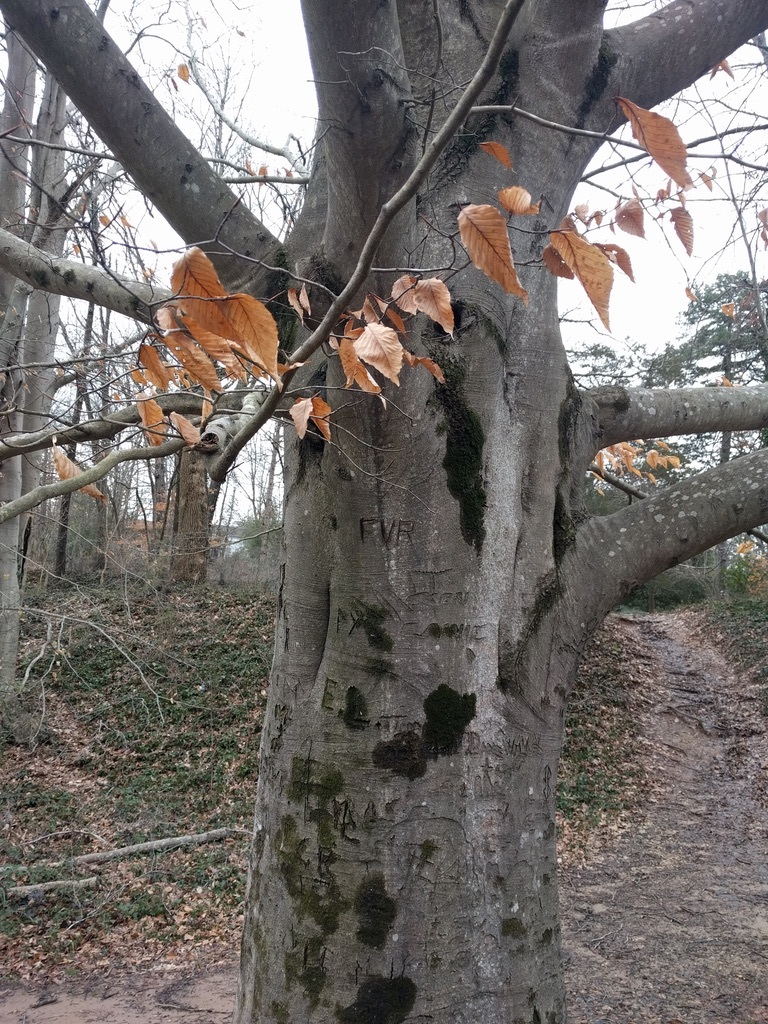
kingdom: Plantae
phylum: Tracheophyta
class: Magnoliopsida
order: Fagales
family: Fagaceae
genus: Fagus
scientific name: Fagus grandifolia
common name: American beech
